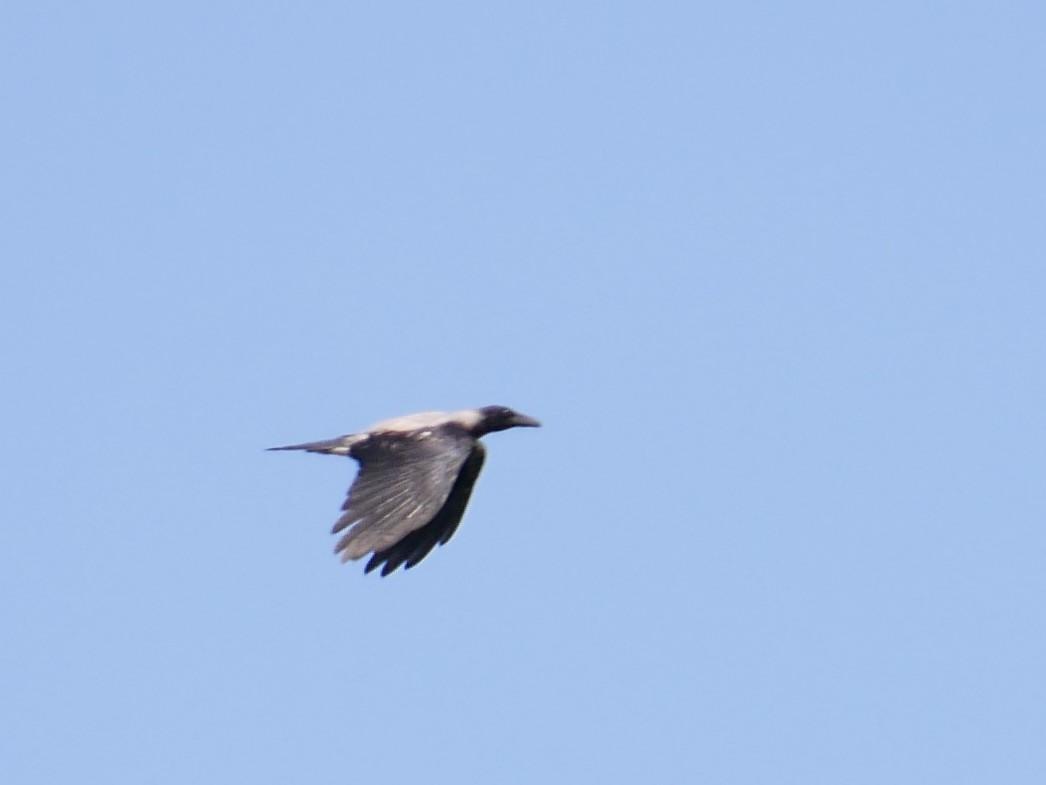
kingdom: Animalia
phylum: Chordata
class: Aves
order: Passeriformes
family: Corvidae
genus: Corvus
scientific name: Corvus cornix
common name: Hooded crow
